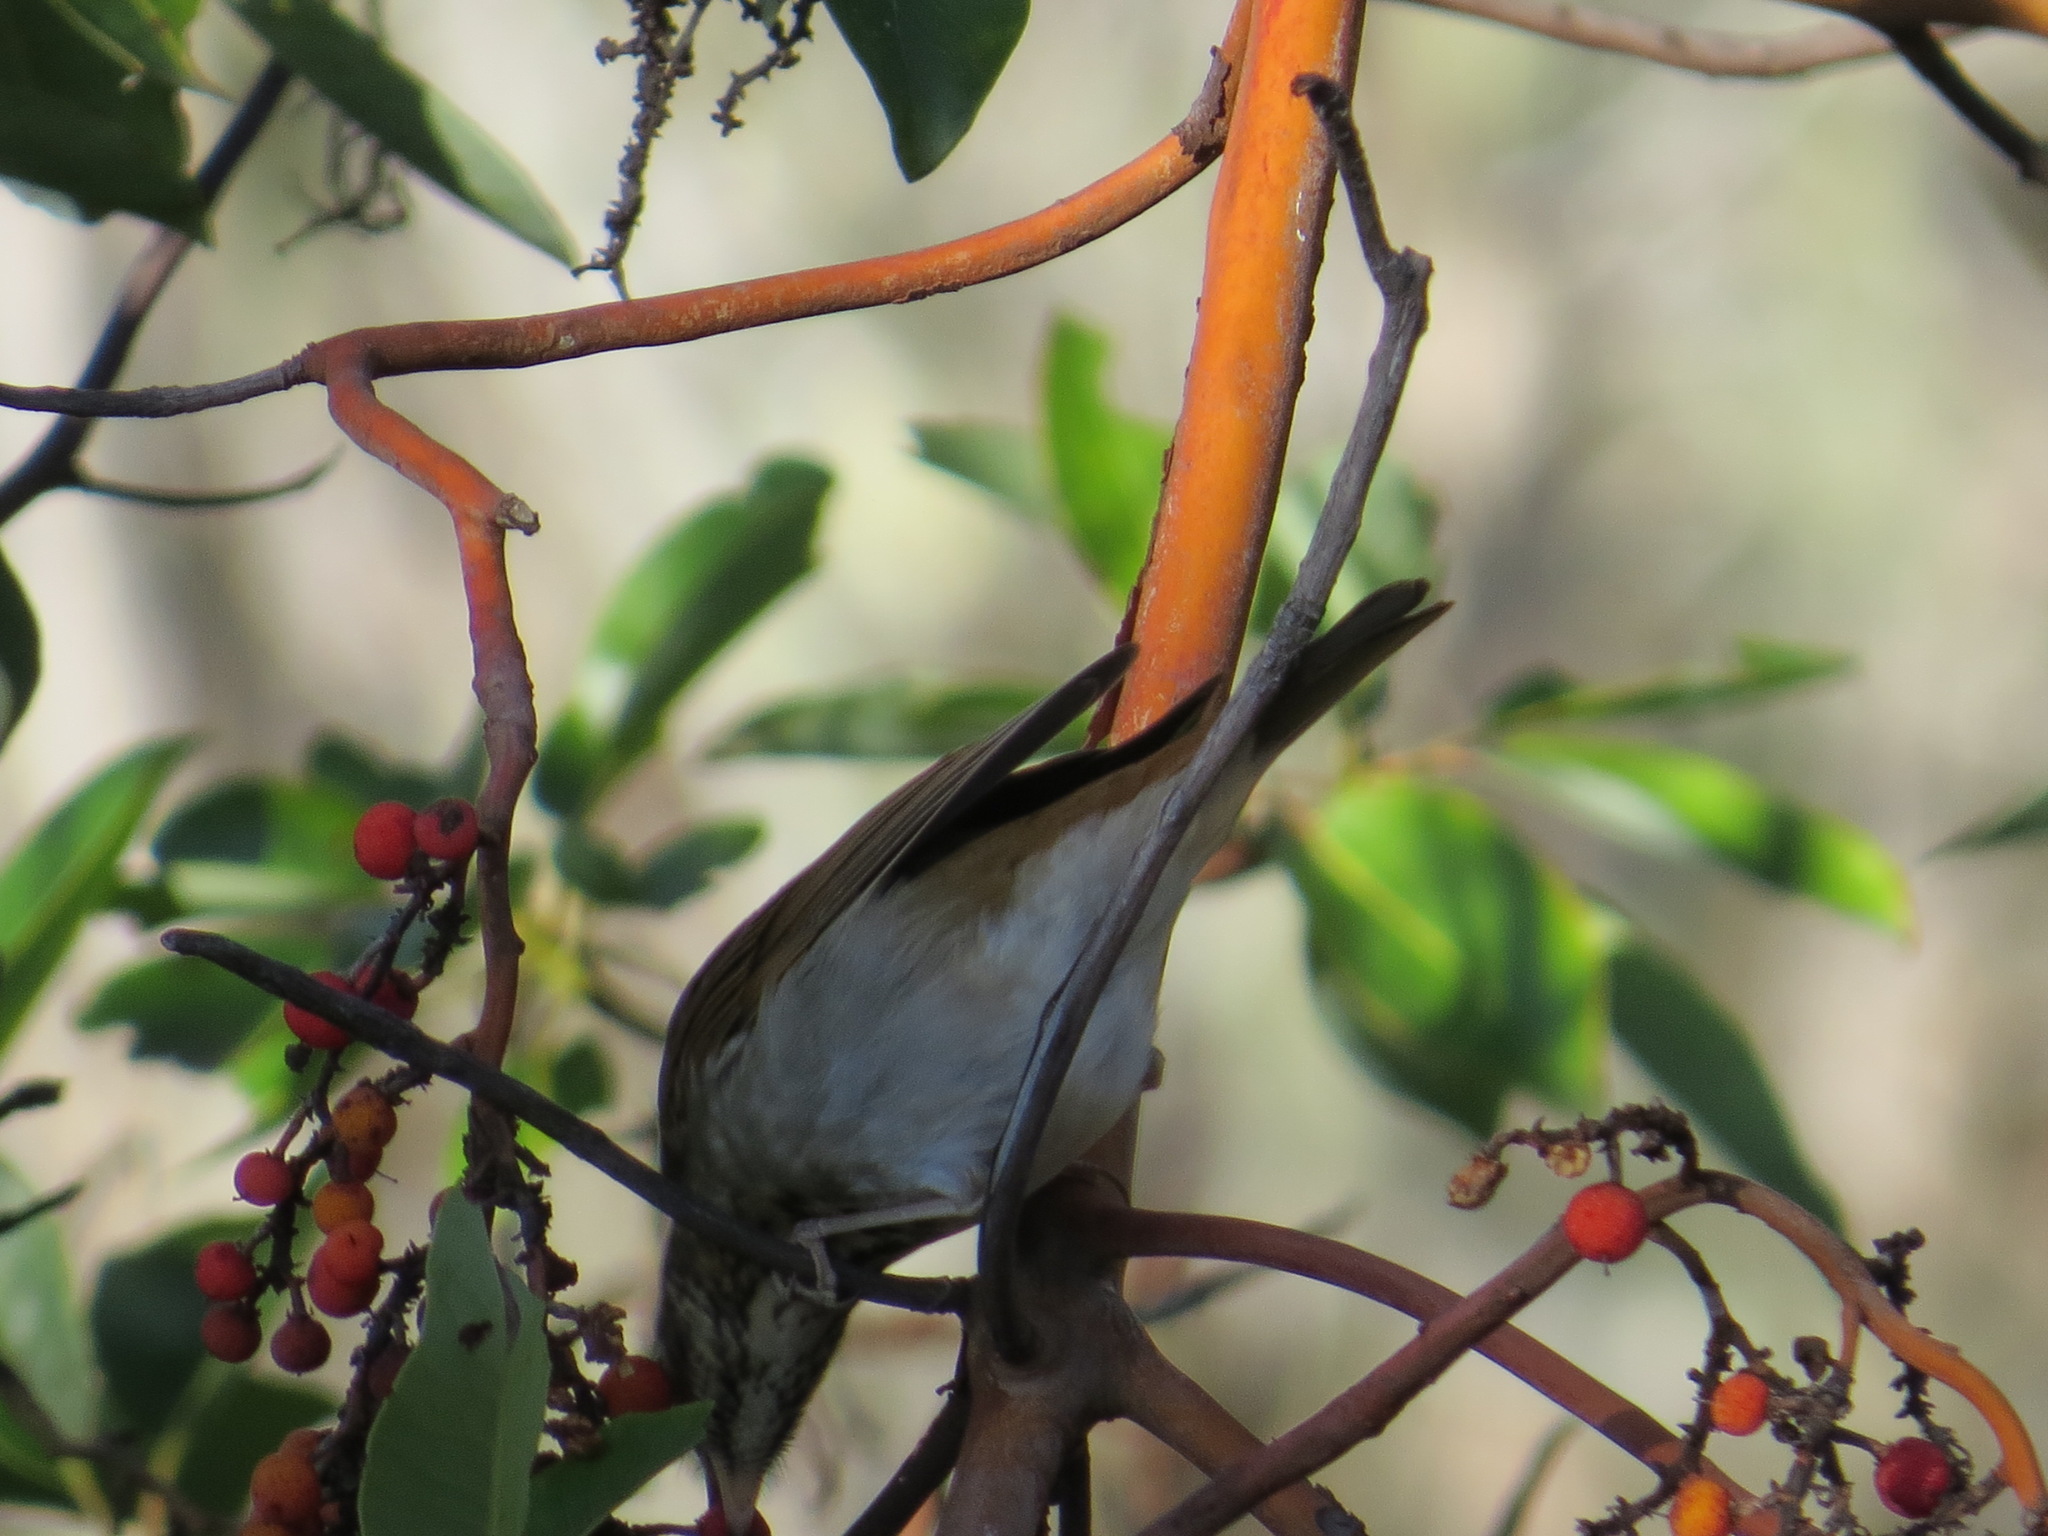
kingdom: Animalia
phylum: Chordata
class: Aves
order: Passeriformes
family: Turdidae
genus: Catharus
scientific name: Catharus guttatus
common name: Hermit thrush
